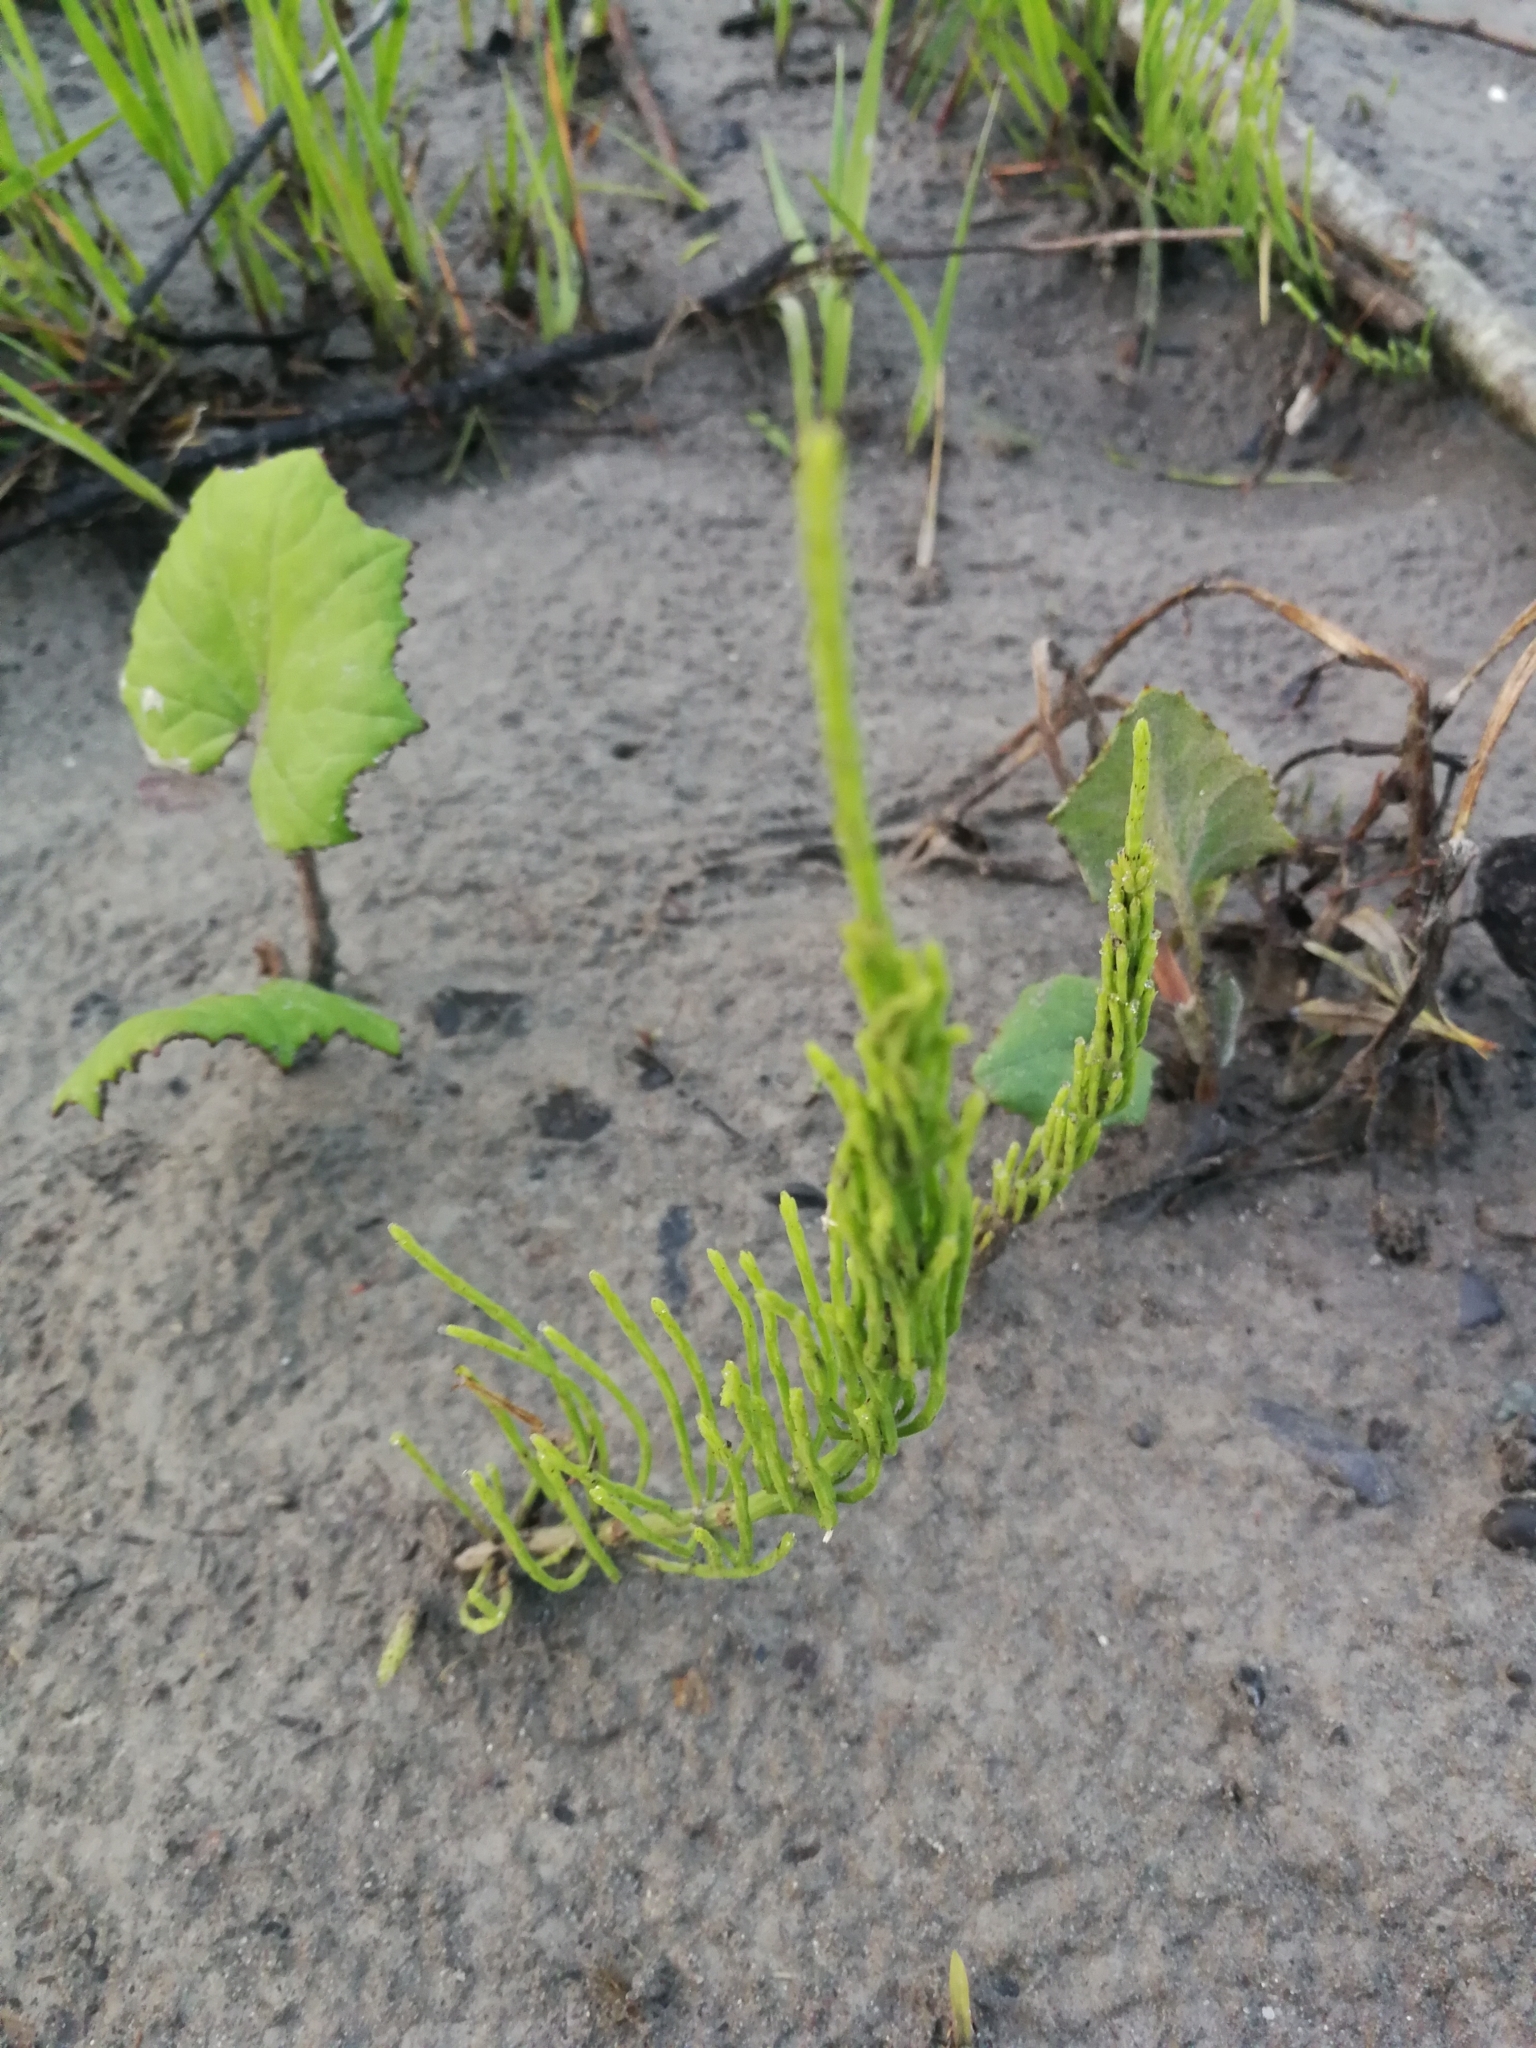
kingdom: Plantae
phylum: Tracheophyta
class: Polypodiopsida
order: Equisetales
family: Equisetaceae
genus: Equisetum
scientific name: Equisetum arvense
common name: Field horsetail
